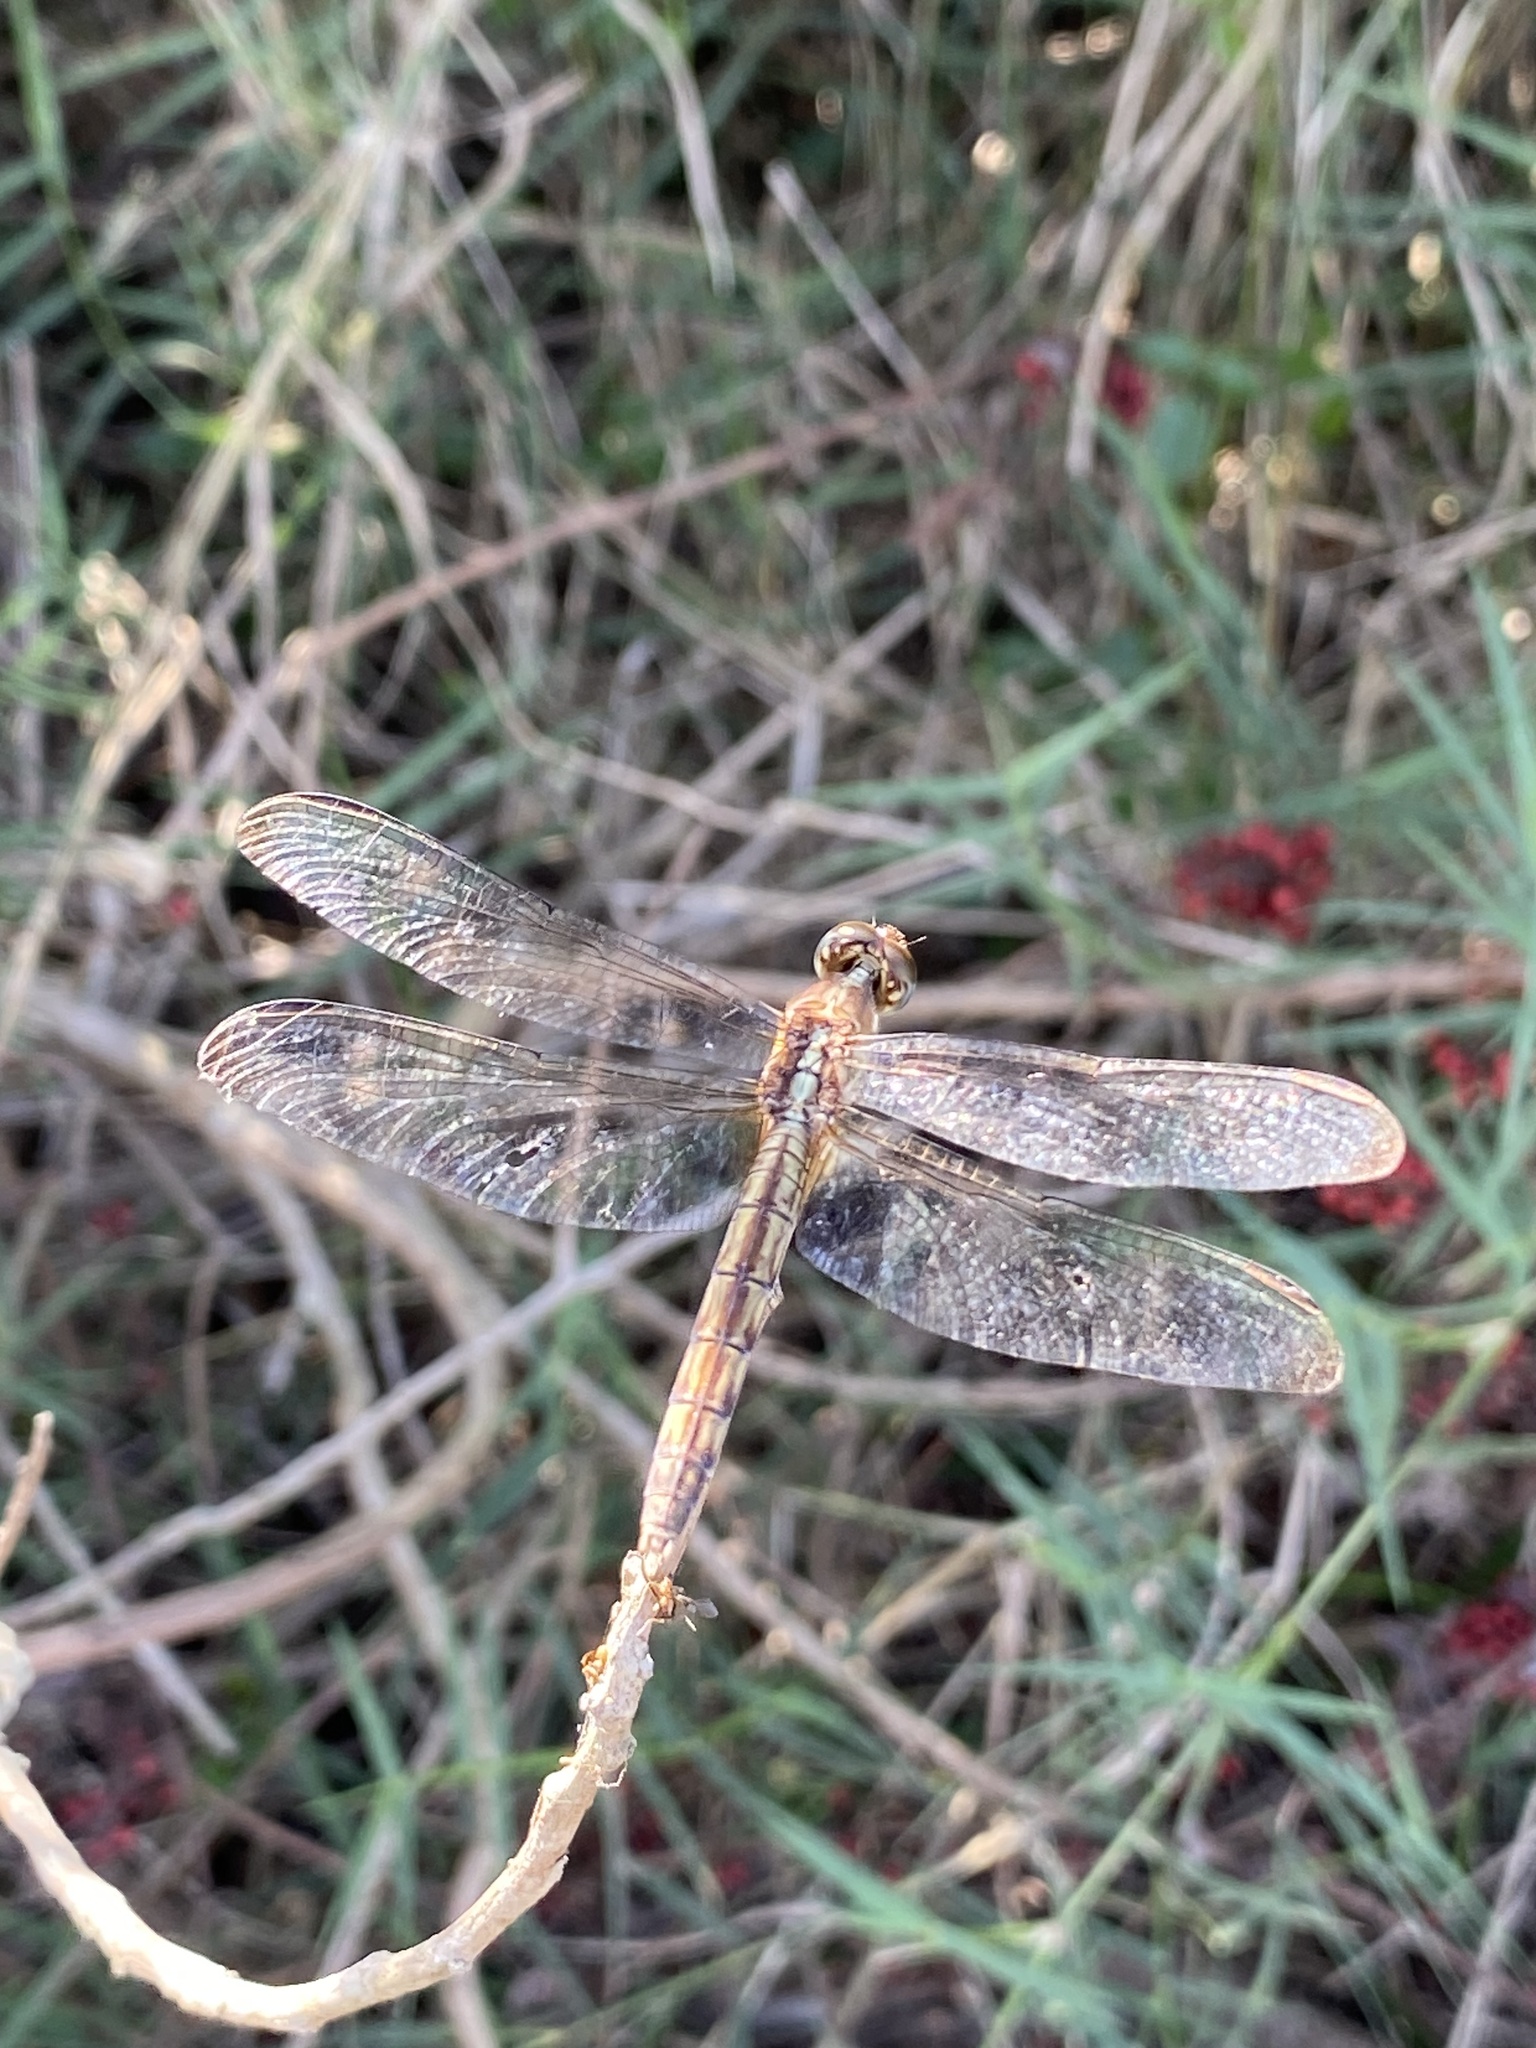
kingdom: Animalia
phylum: Arthropoda
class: Insecta
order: Odonata
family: Libellulidae
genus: Erythrodiplax
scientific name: Erythrodiplax umbrata
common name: Band-winged dragonlet
